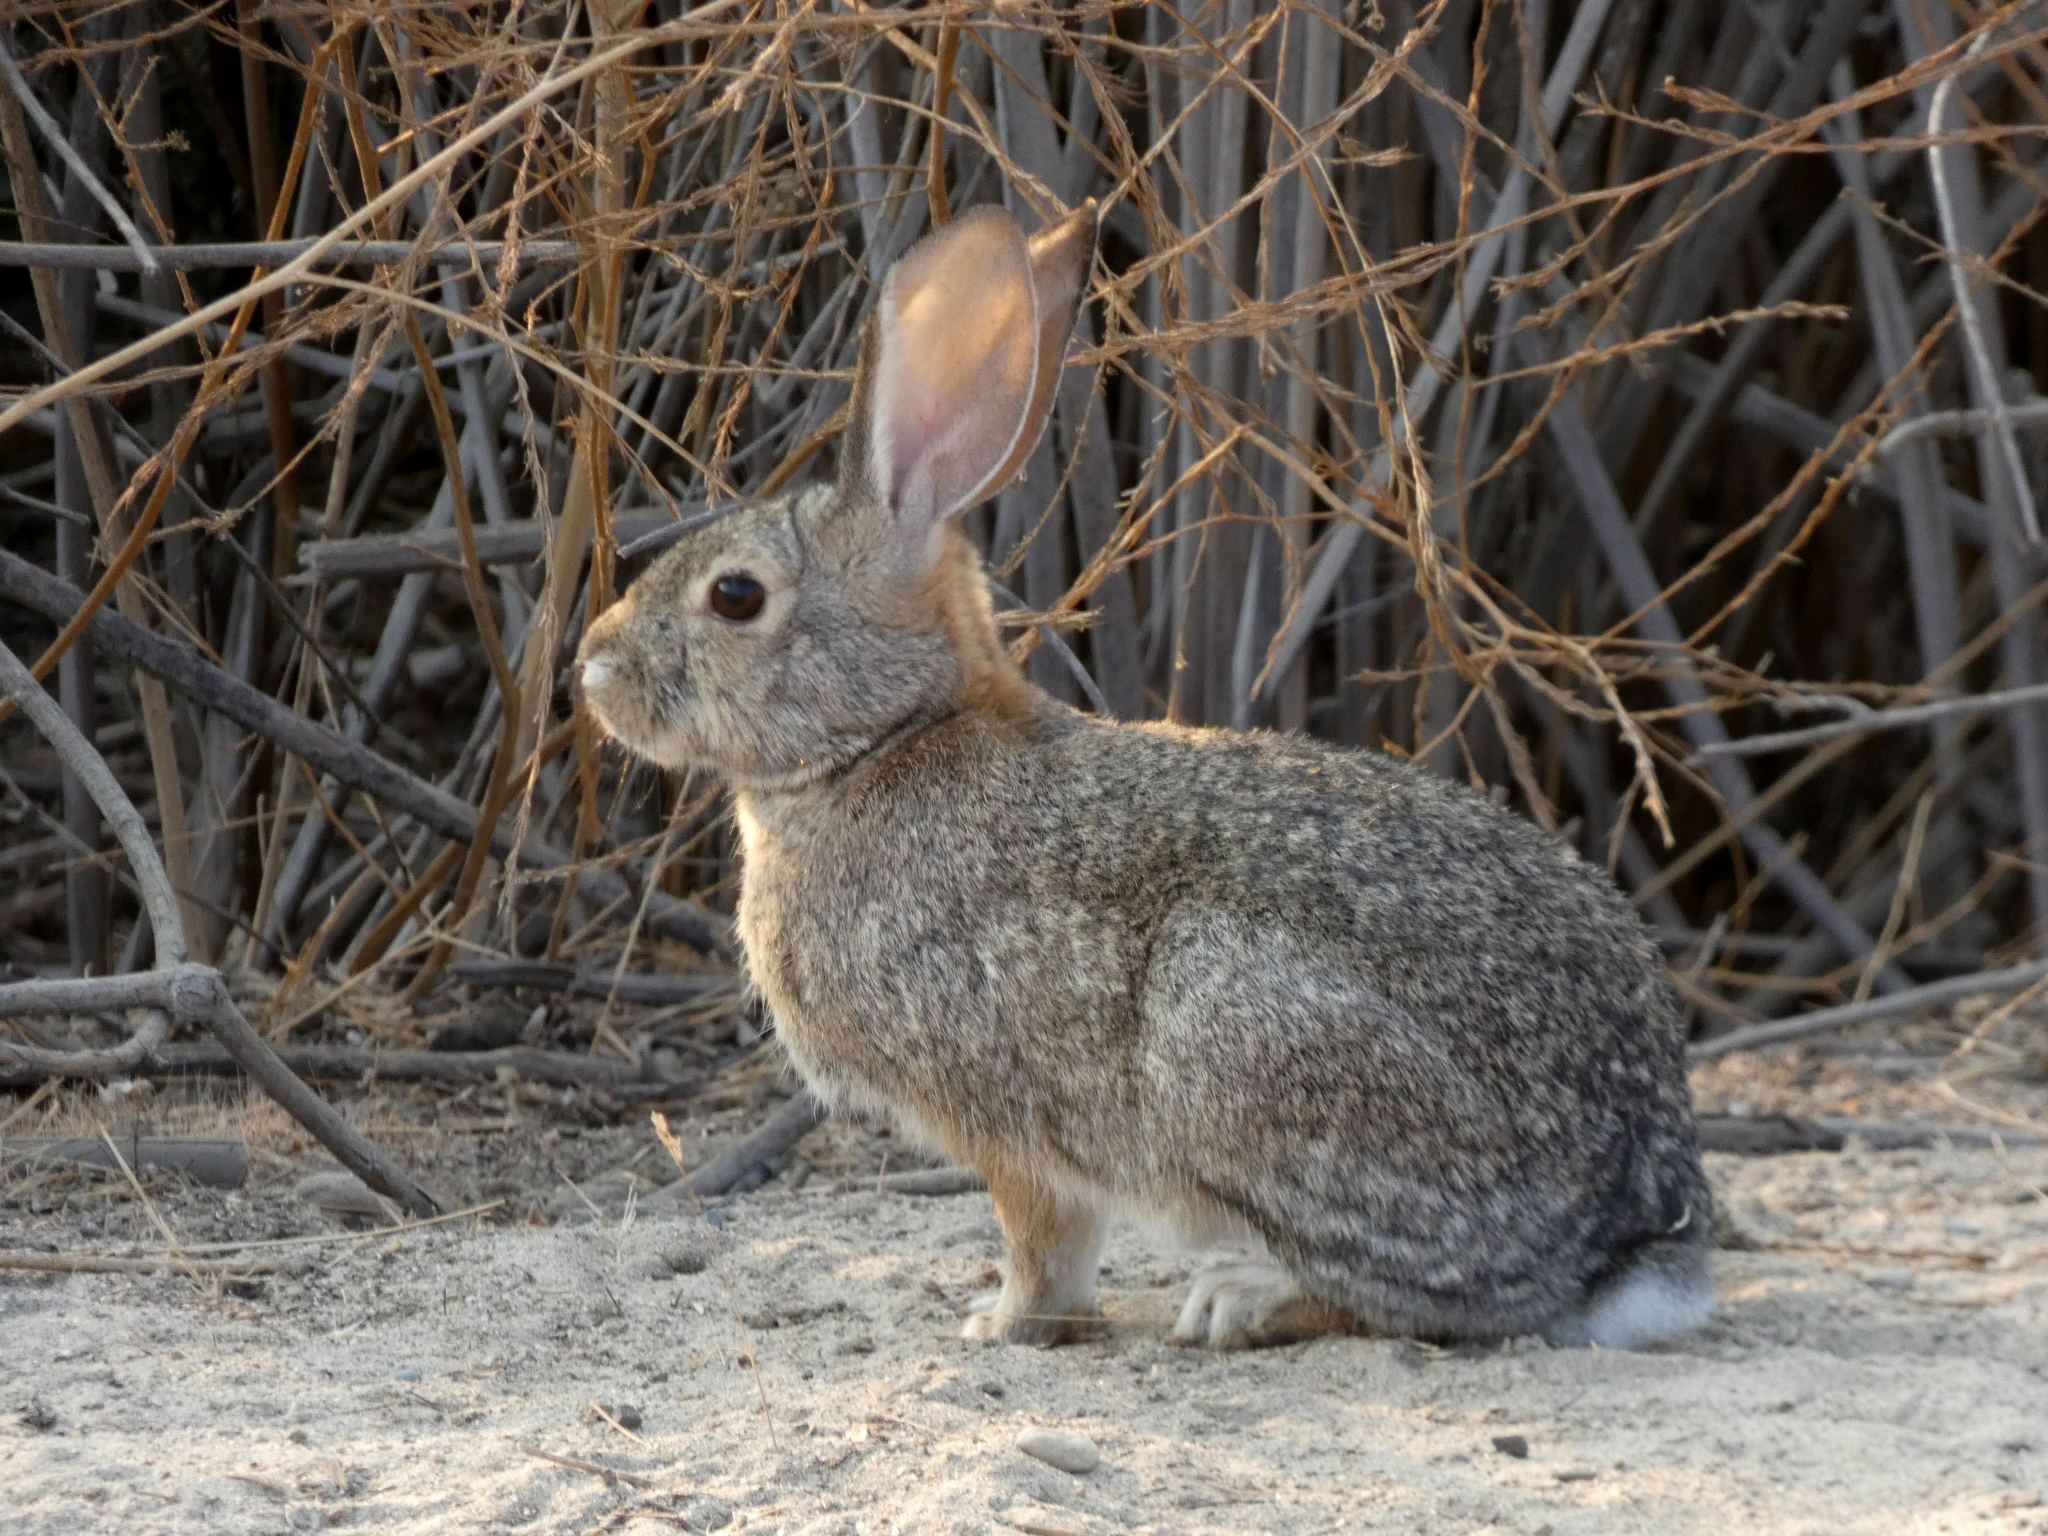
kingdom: Animalia
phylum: Chordata
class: Mammalia
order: Lagomorpha
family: Leporidae
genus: Sylvilagus
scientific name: Sylvilagus audubonii
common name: Desert cottontail
